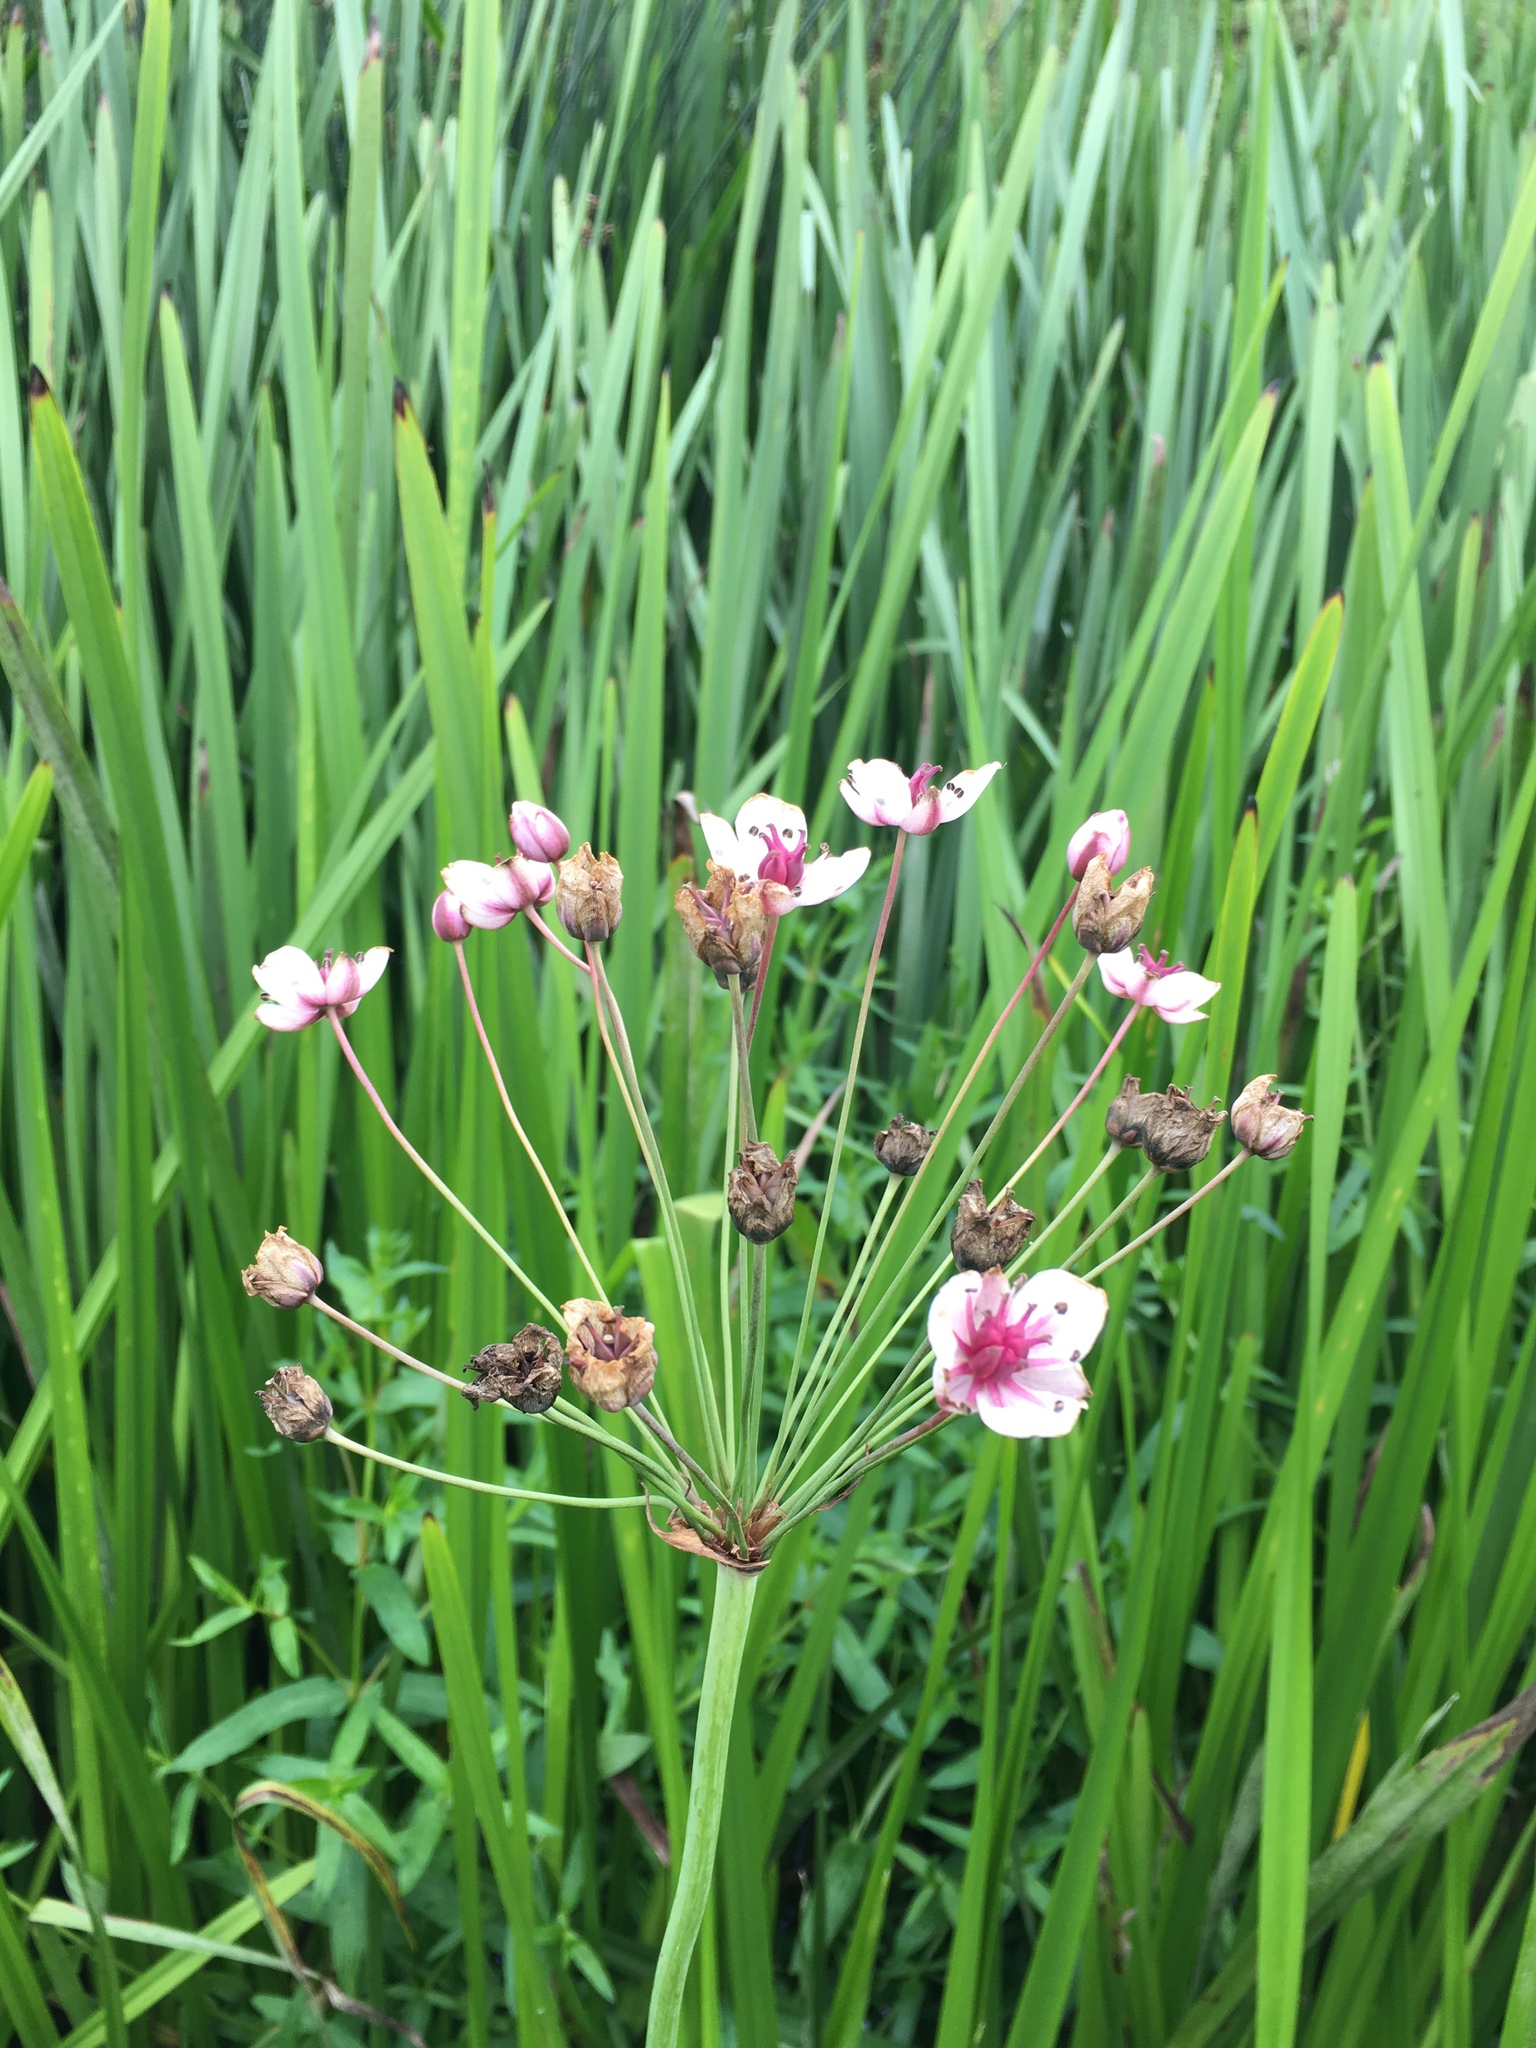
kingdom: Plantae
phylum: Tracheophyta
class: Liliopsida
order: Alismatales
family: Butomaceae
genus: Butomus
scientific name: Butomus umbellatus
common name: Flowering-rush
